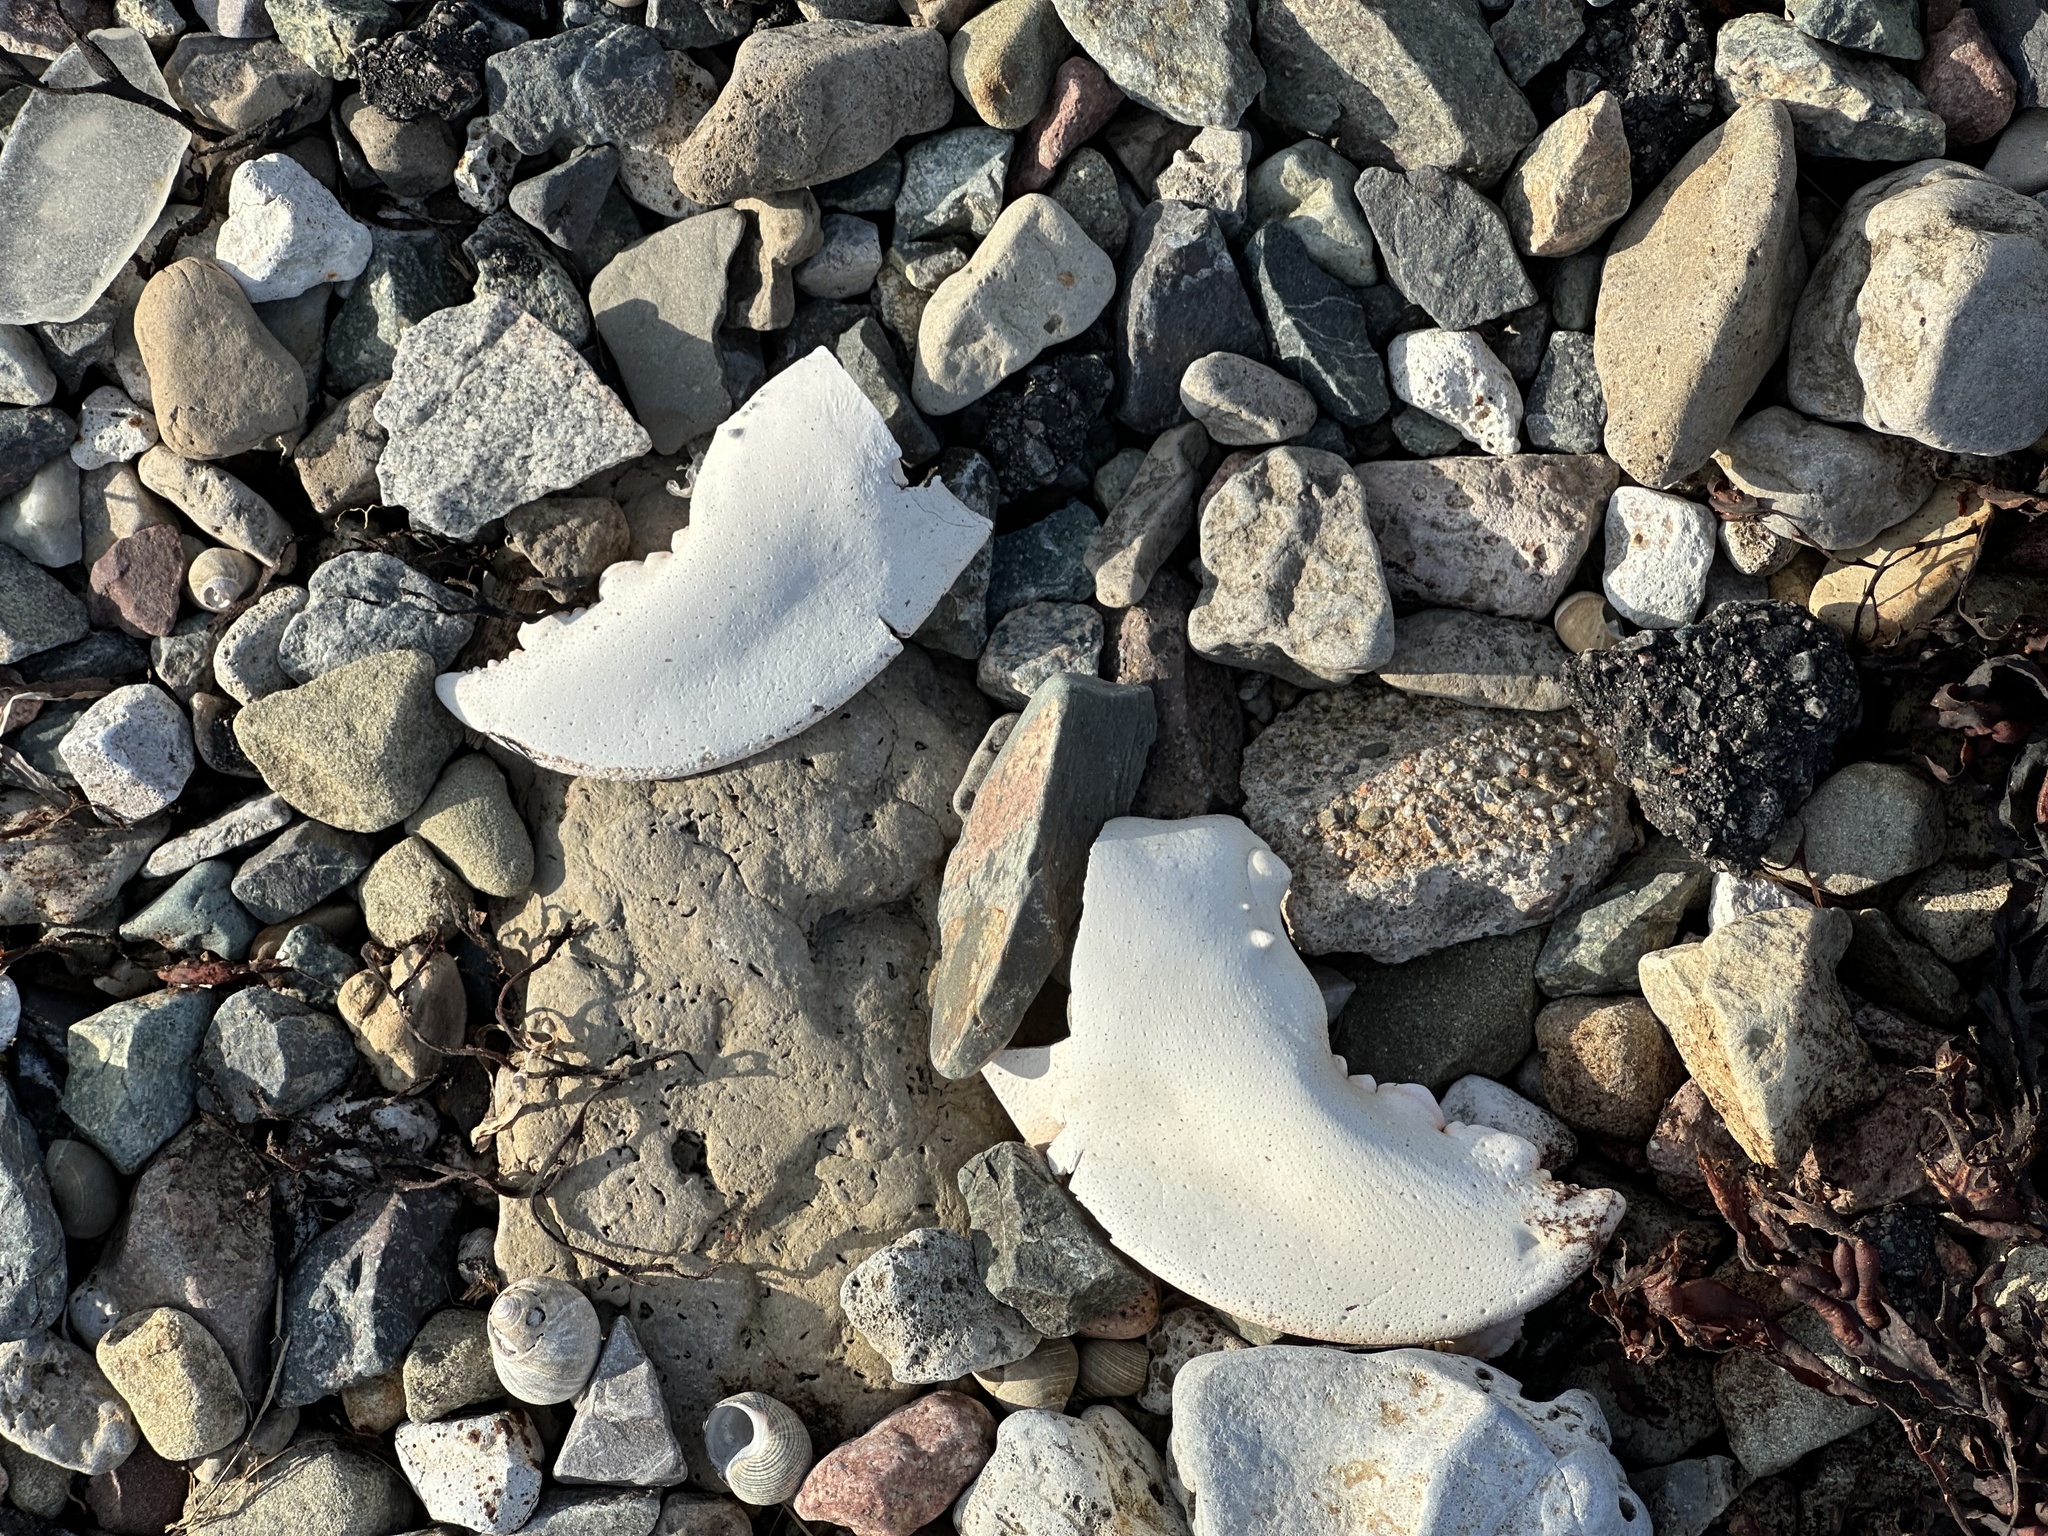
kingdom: Animalia
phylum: Arthropoda
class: Malacostraca
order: Decapoda
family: Nephropidae
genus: Homarus
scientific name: Homarus americanus
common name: American lobster
